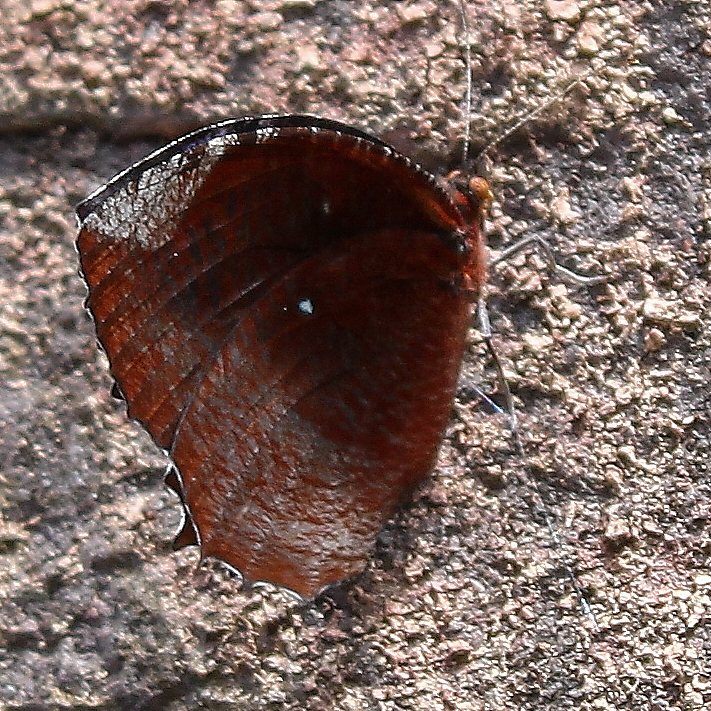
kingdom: Animalia
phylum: Arthropoda
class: Insecta
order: Lepidoptera
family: Nymphalidae
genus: Elymnias
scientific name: Elymnias hypermnestra
